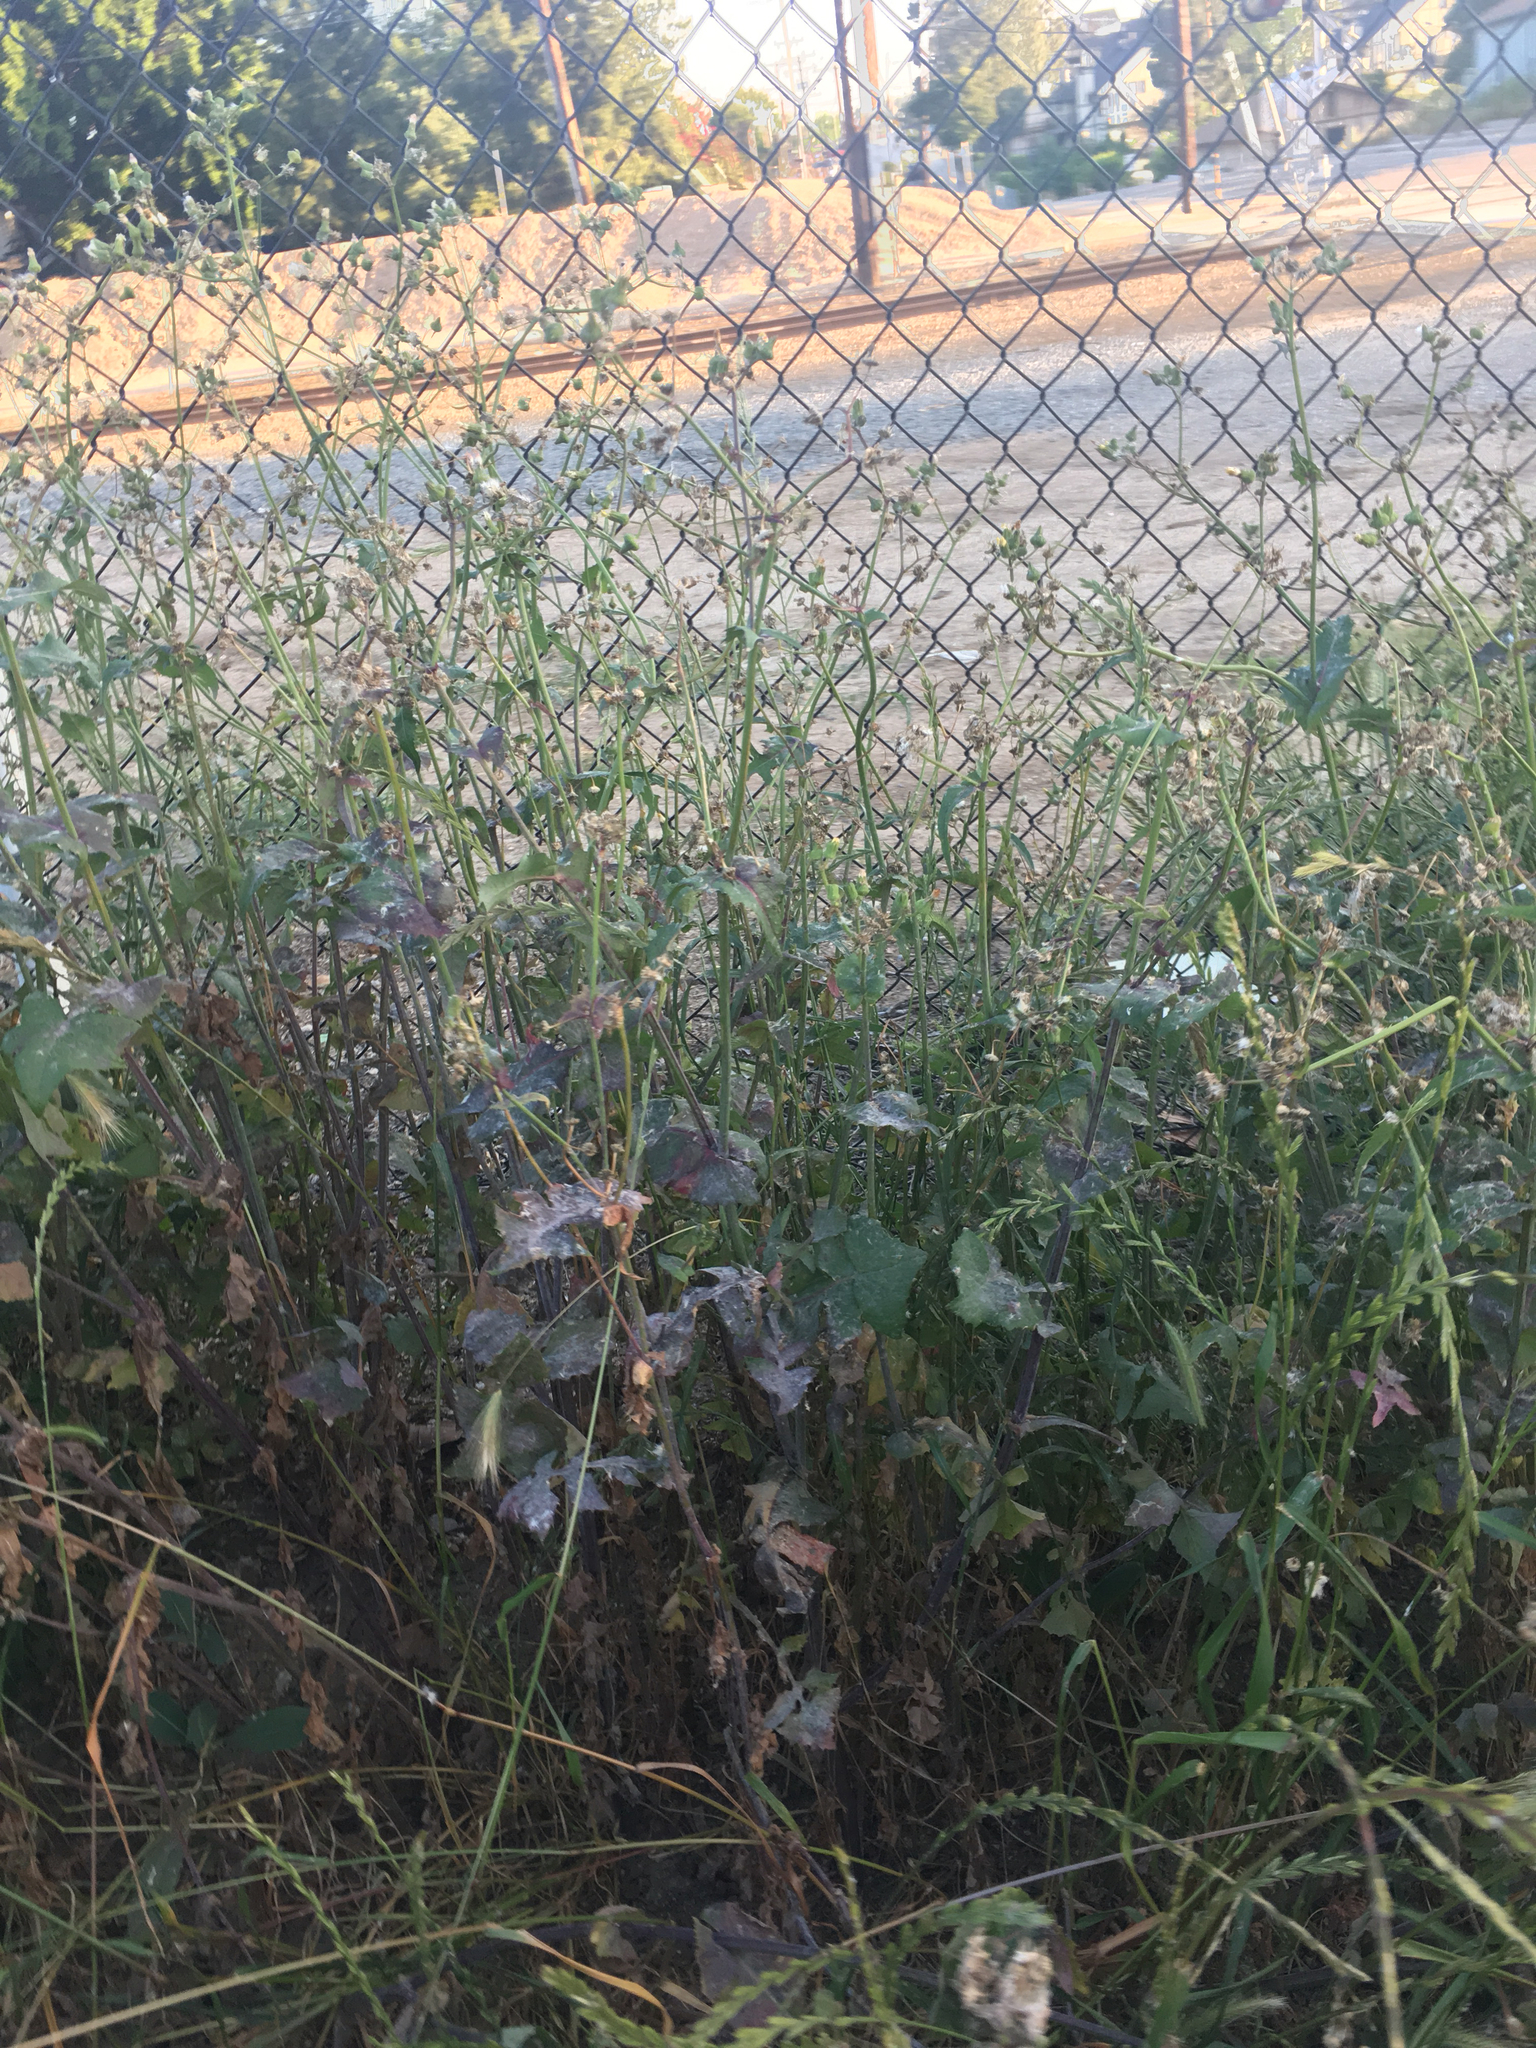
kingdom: Plantae
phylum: Tracheophyta
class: Magnoliopsida
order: Asterales
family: Asteraceae
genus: Sonchus
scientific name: Sonchus oleraceus
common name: Common sowthistle
